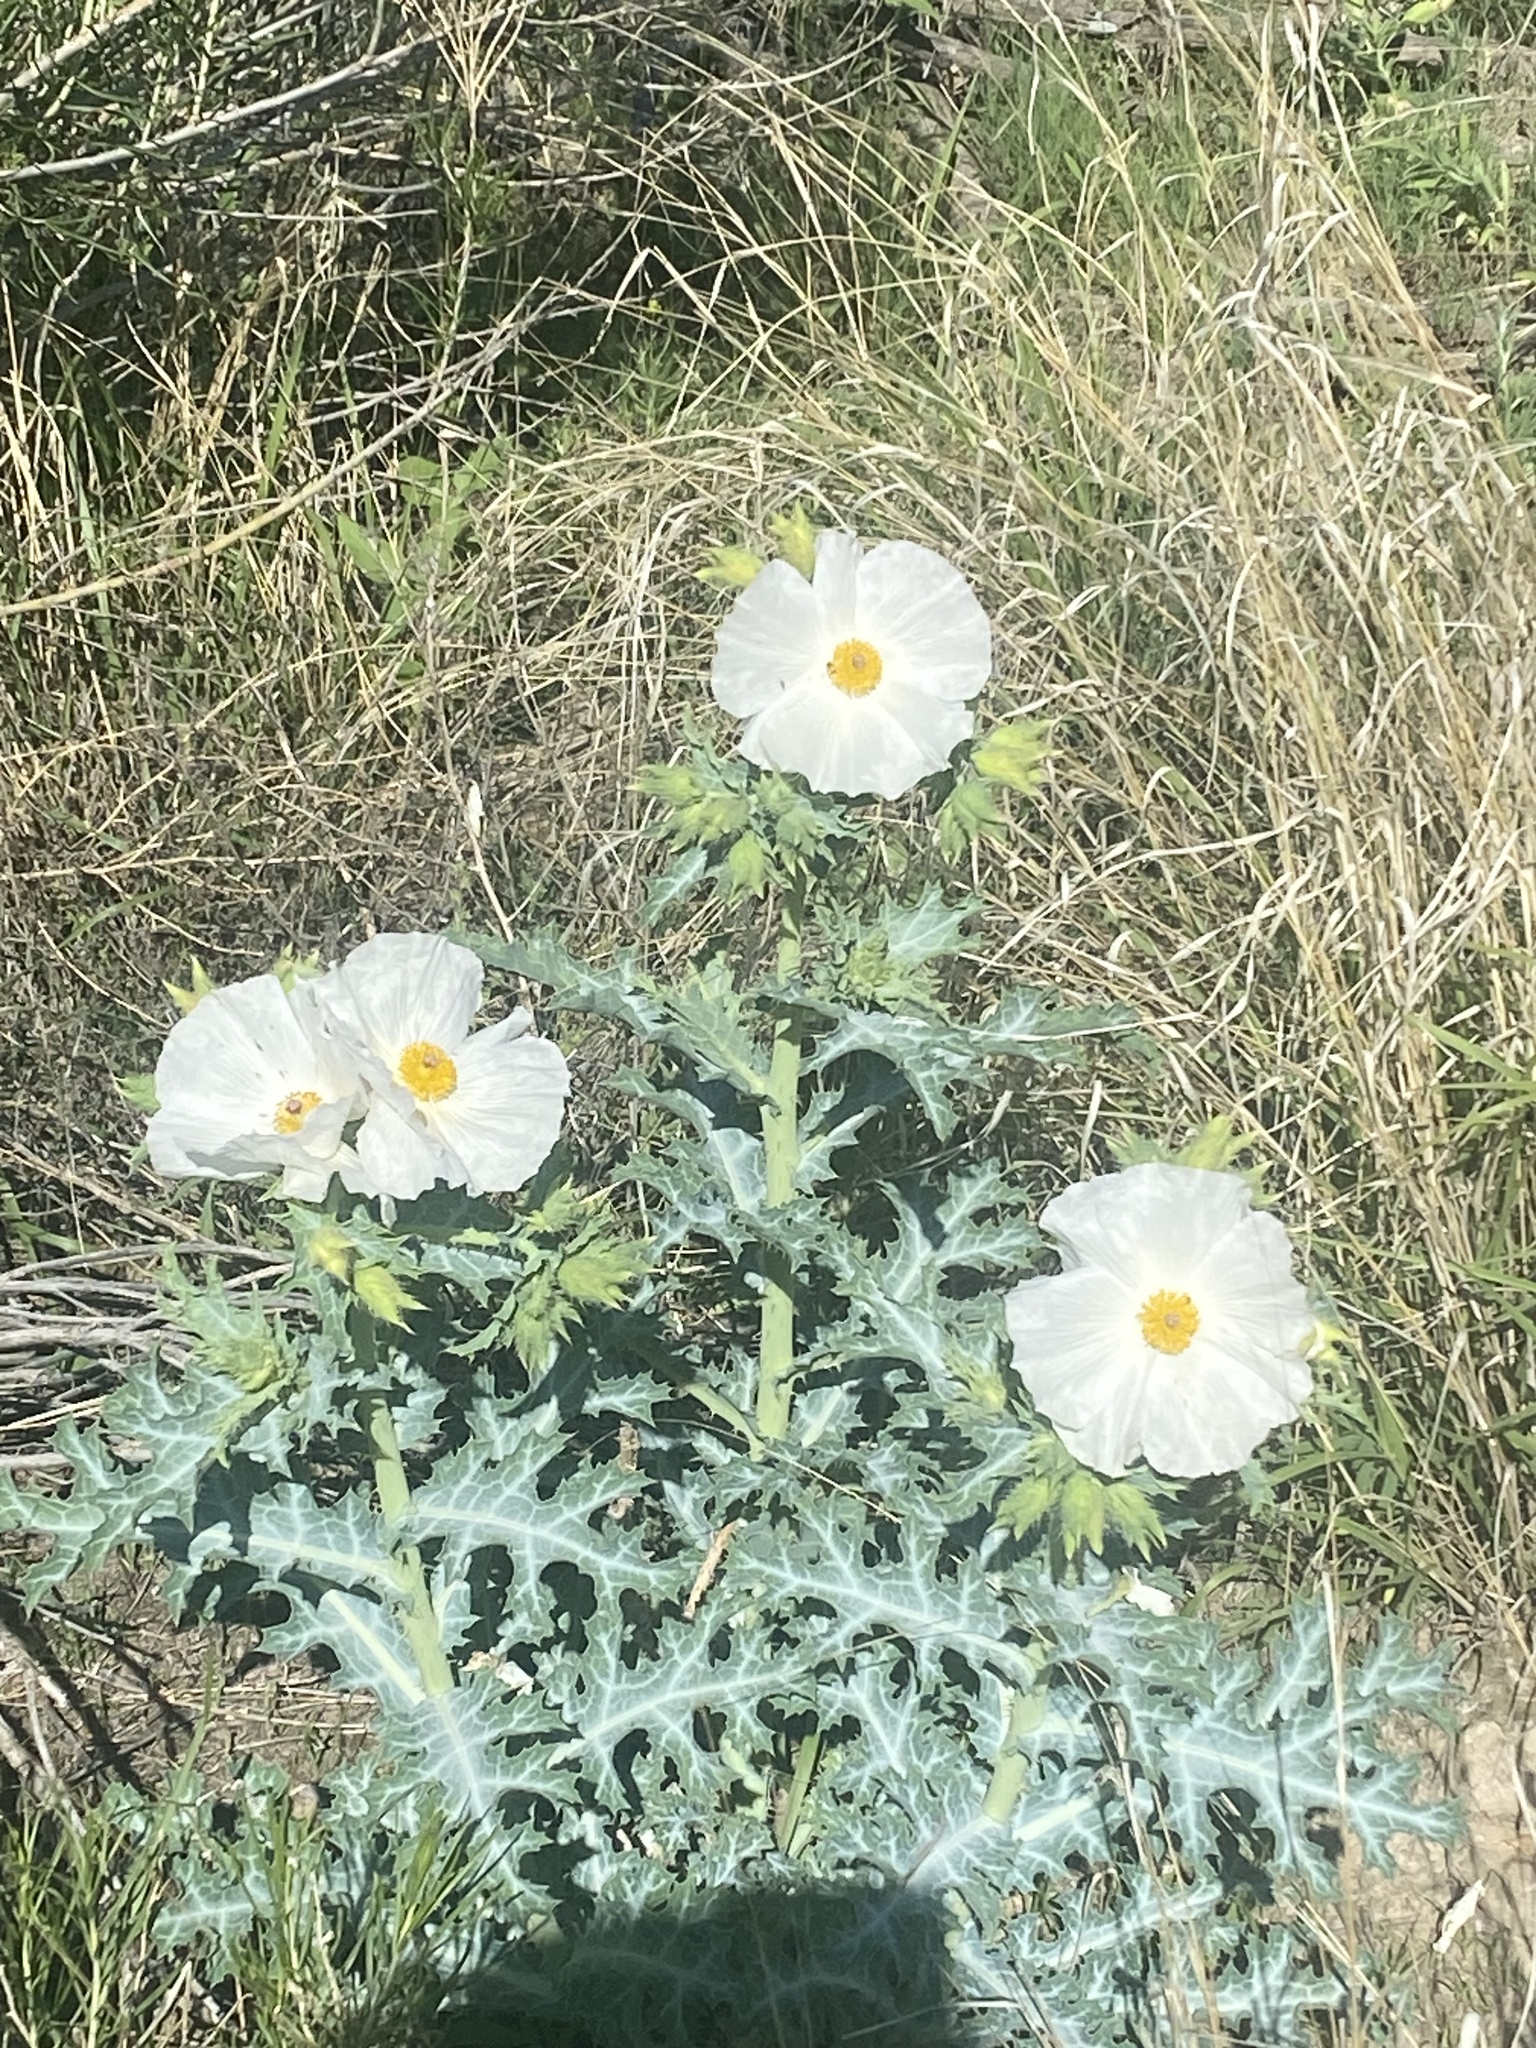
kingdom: Plantae
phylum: Tracheophyta
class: Magnoliopsida
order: Ranunculales
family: Papaveraceae
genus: Argemone
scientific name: Argemone polyanthemos
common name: Plains prickly-poppy
